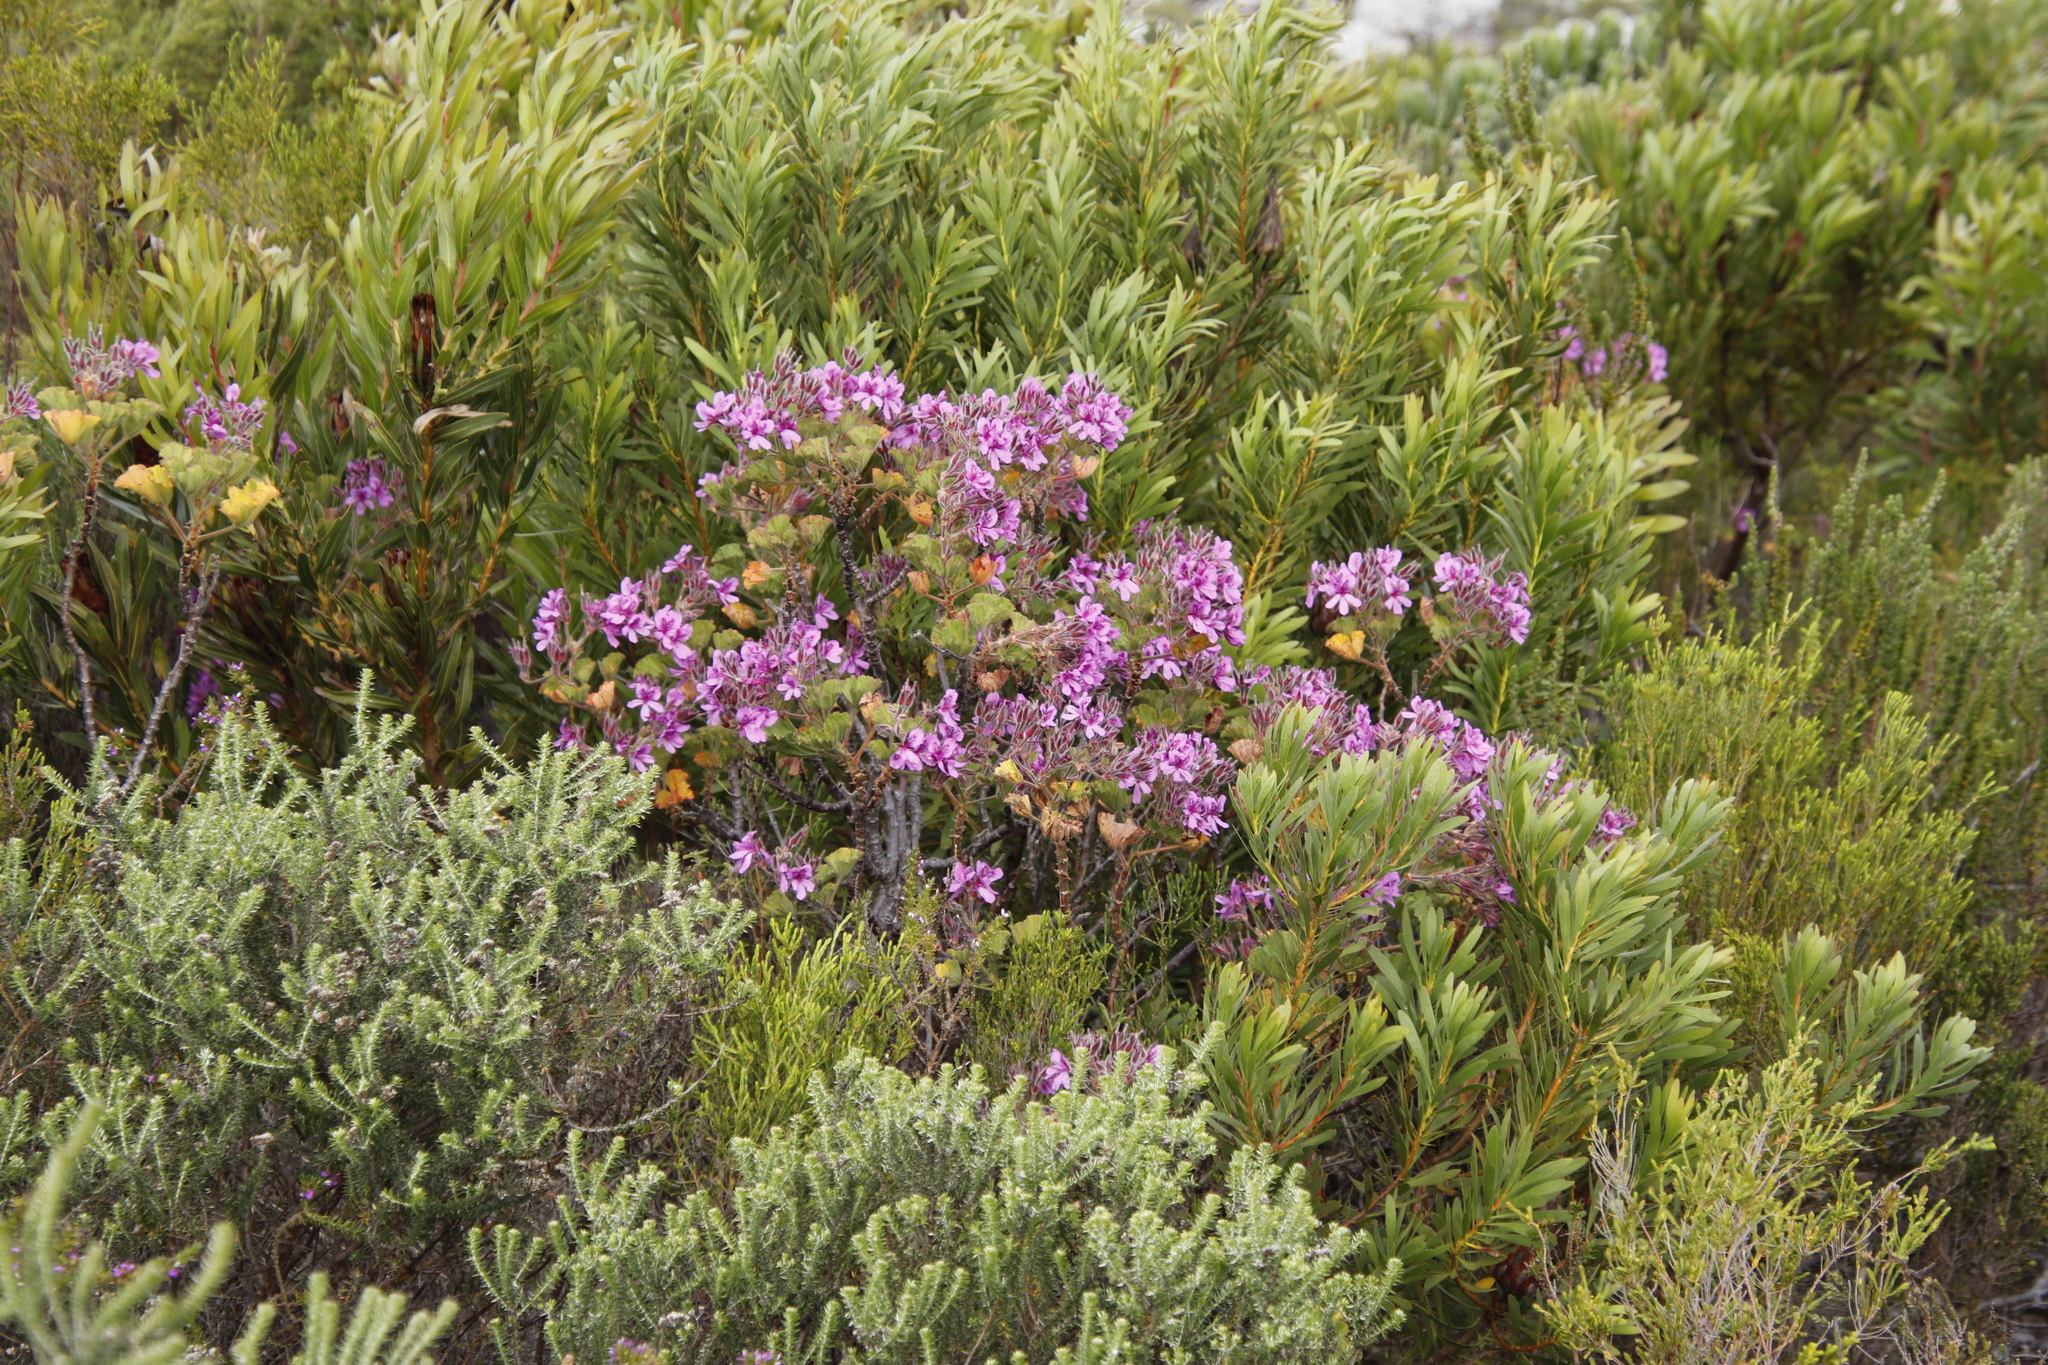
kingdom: Plantae
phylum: Tracheophyta
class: Magnoliopsida
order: Geraniales
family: Geraniaceae
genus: Pelargonium
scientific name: Pelargonium cucullatum
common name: Tree pelargonium
